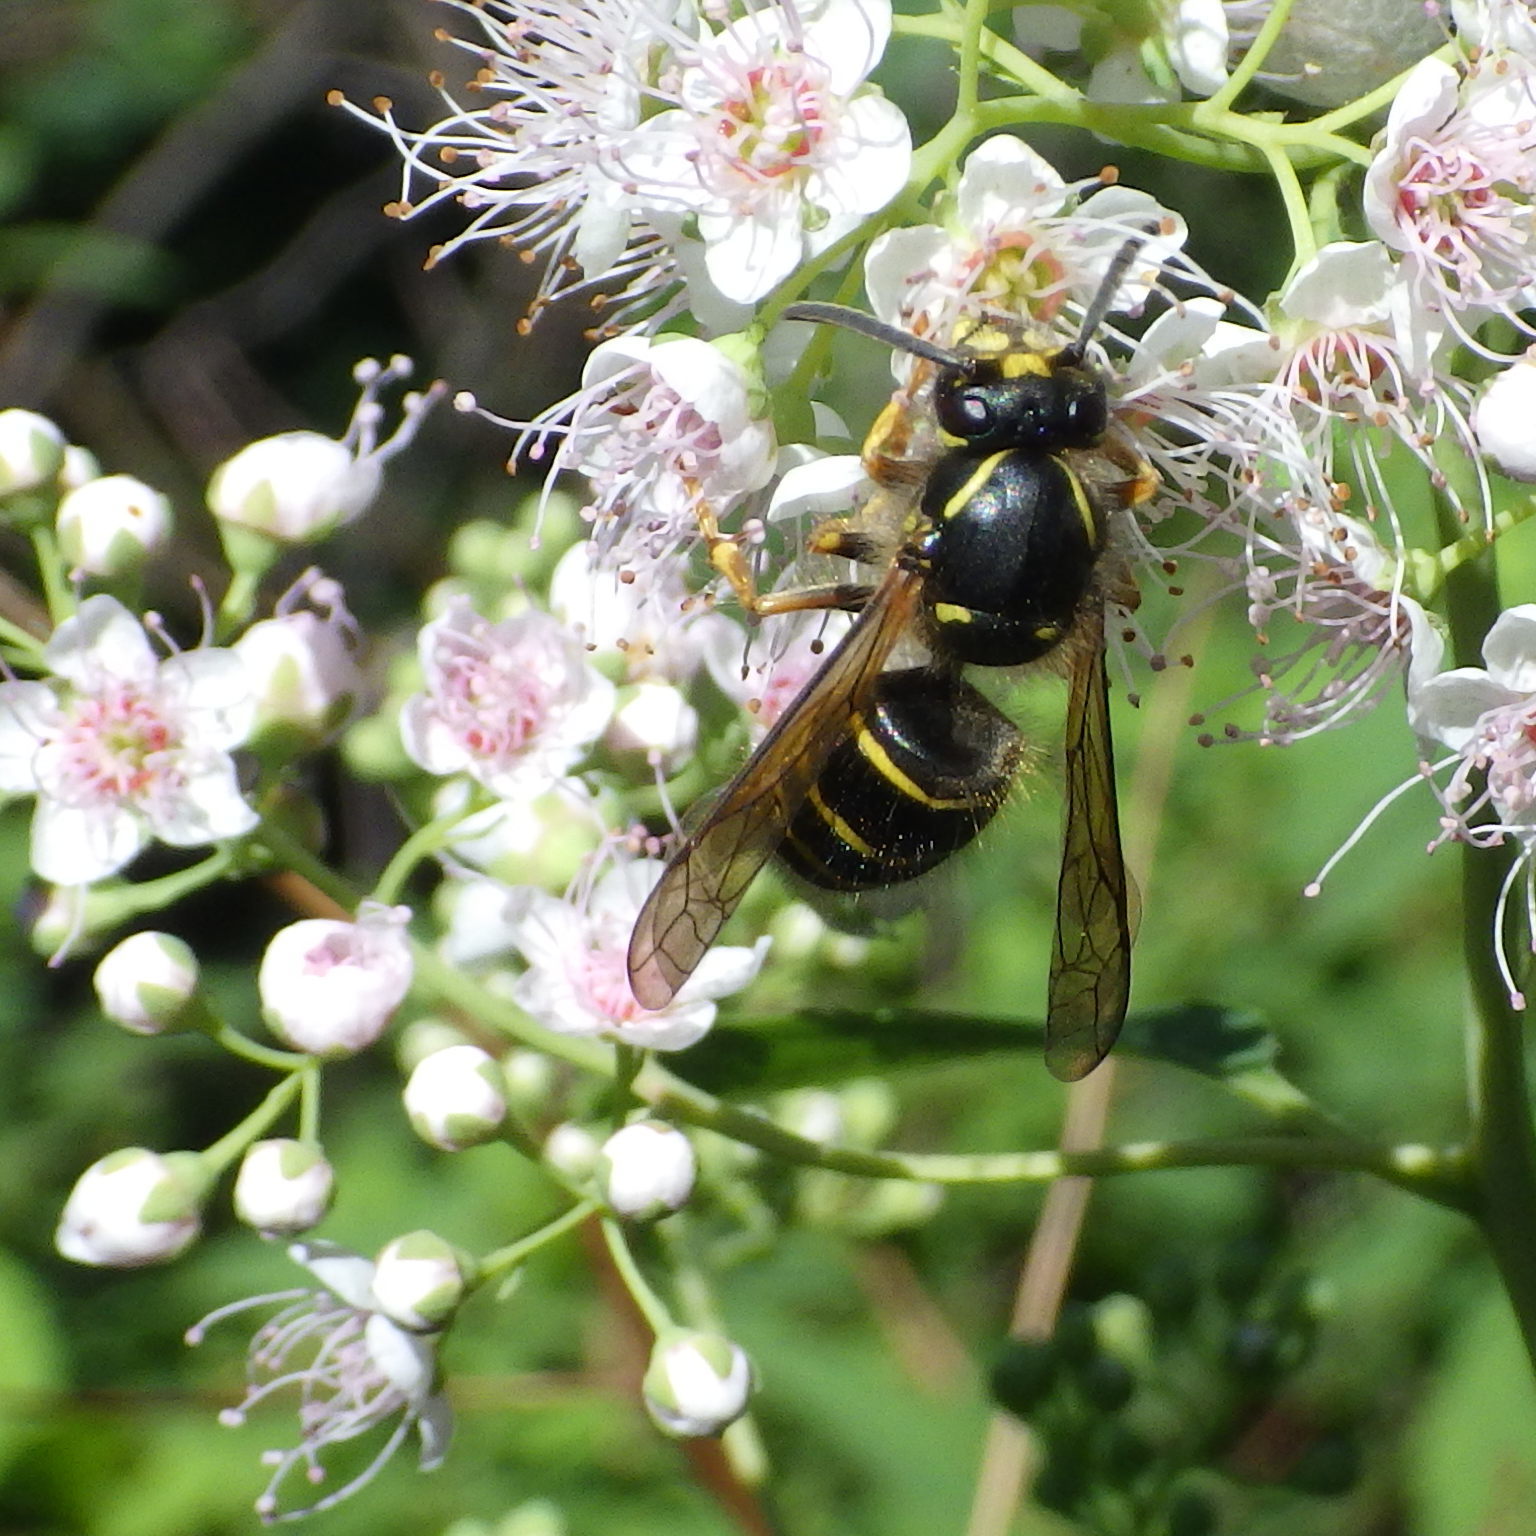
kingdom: Animalia
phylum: Arthropoda
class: Insecta
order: Hymenoptera
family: Vespidae
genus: Dolichovespula
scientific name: Dolichovespula norvegicoides
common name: Northern aerial yellowjacket
